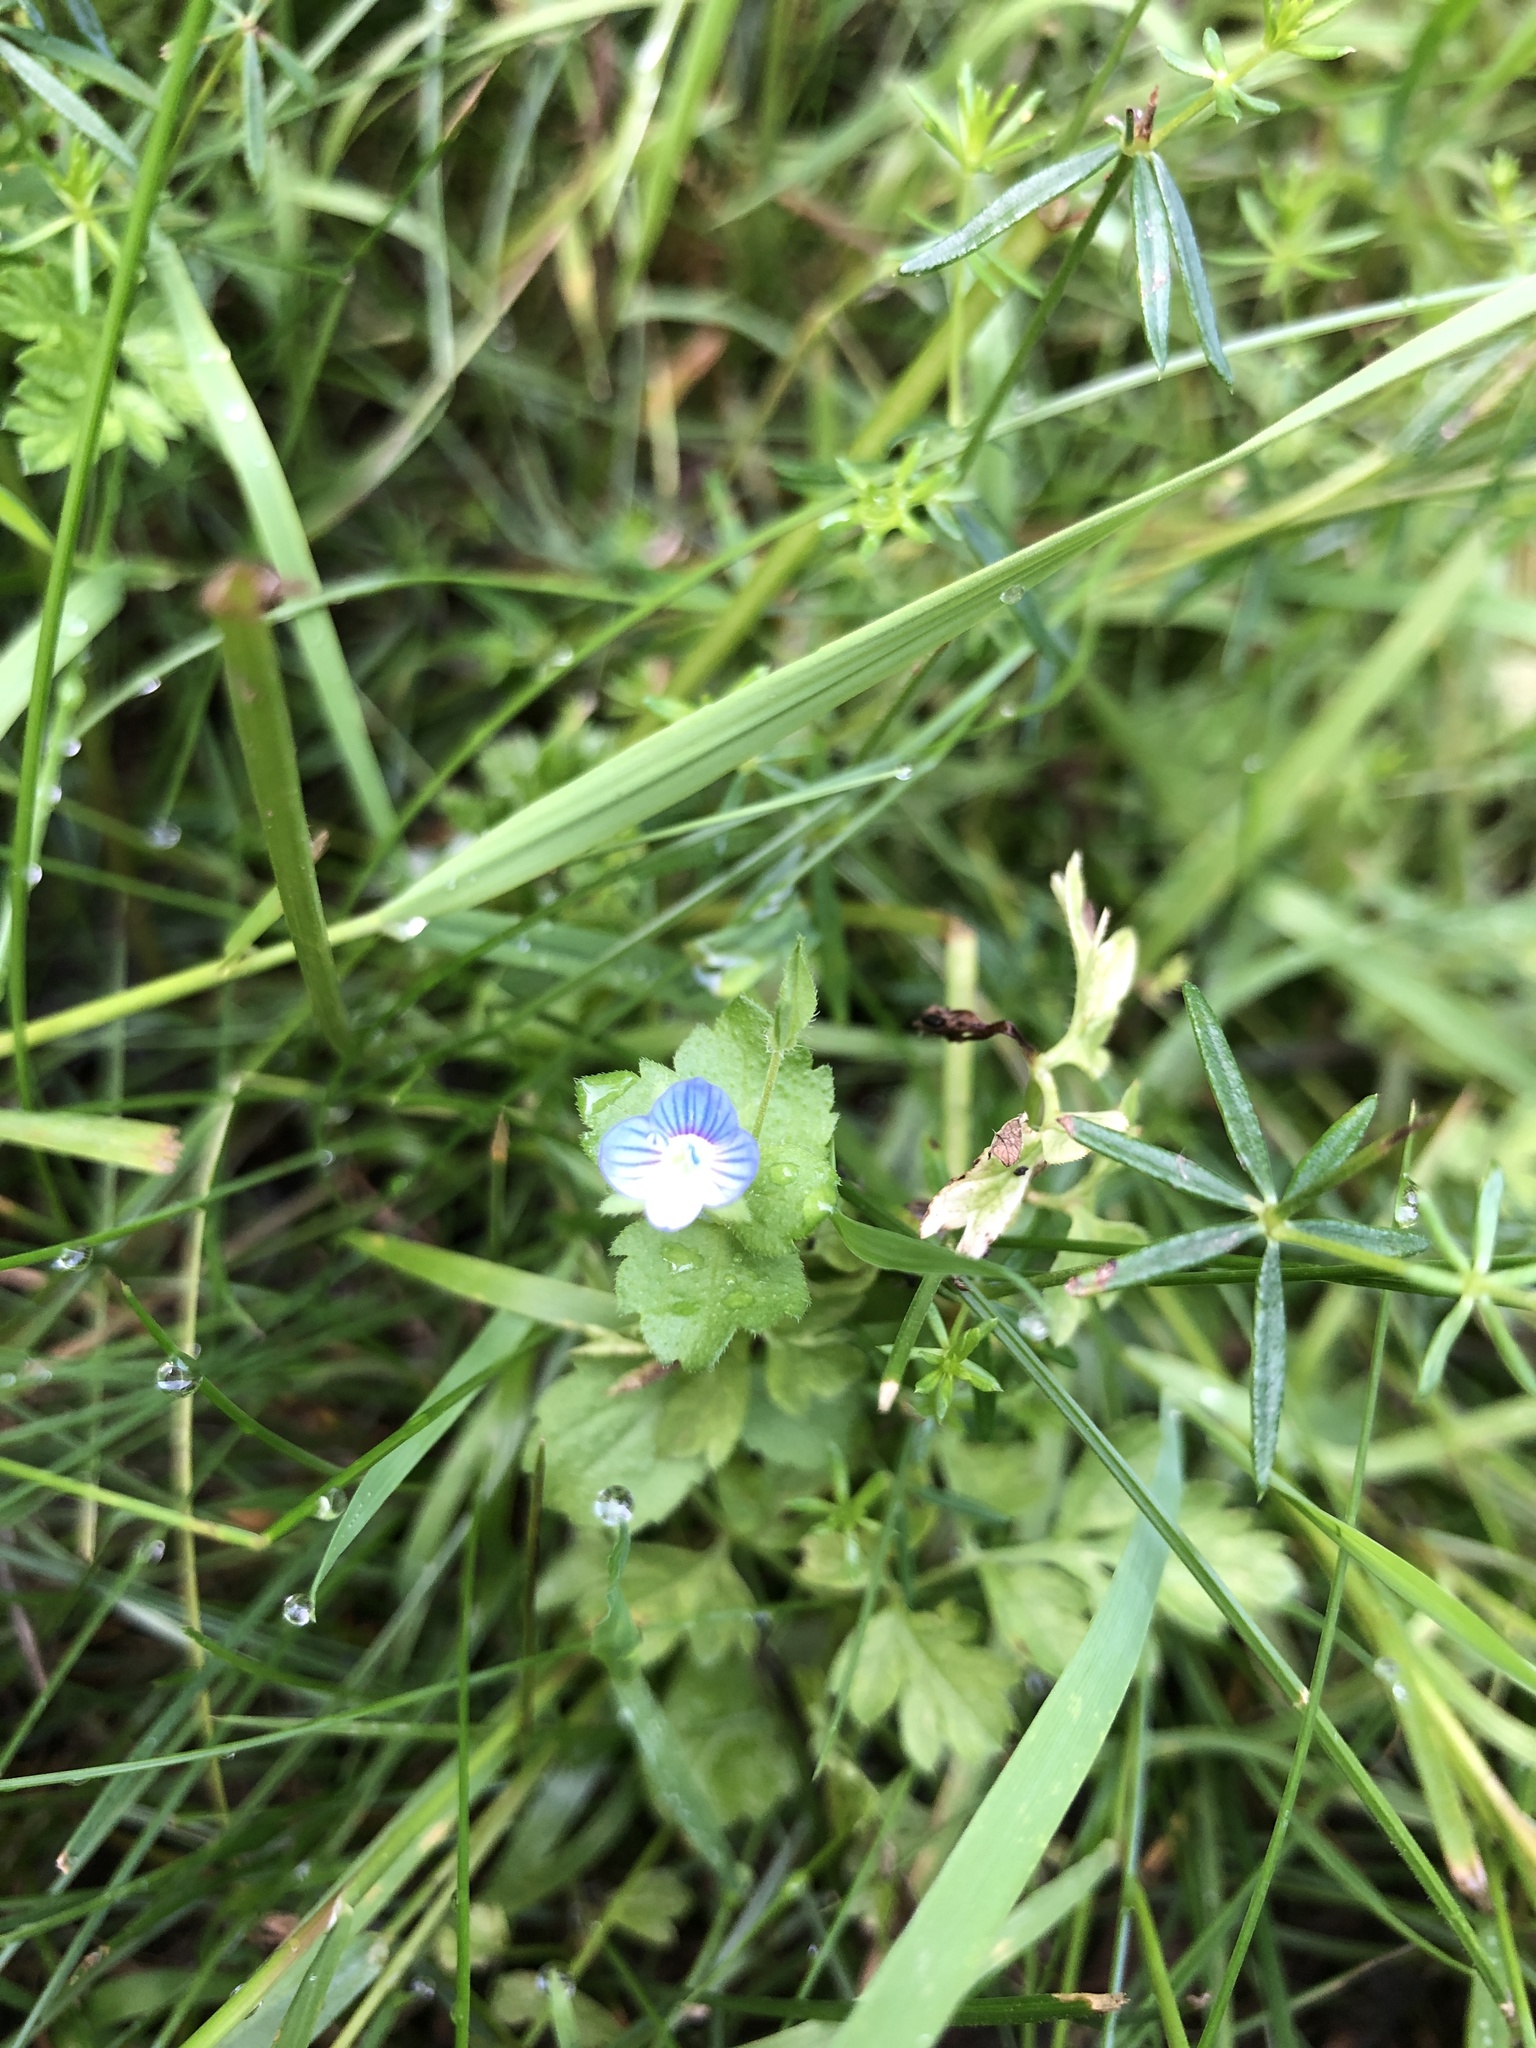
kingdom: Plantae
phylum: Tracheophyta
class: Magnoliopsida
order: Lamiales
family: Plantaginaceae
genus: Veronica
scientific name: Veronica persica
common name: Common field-speedwell
